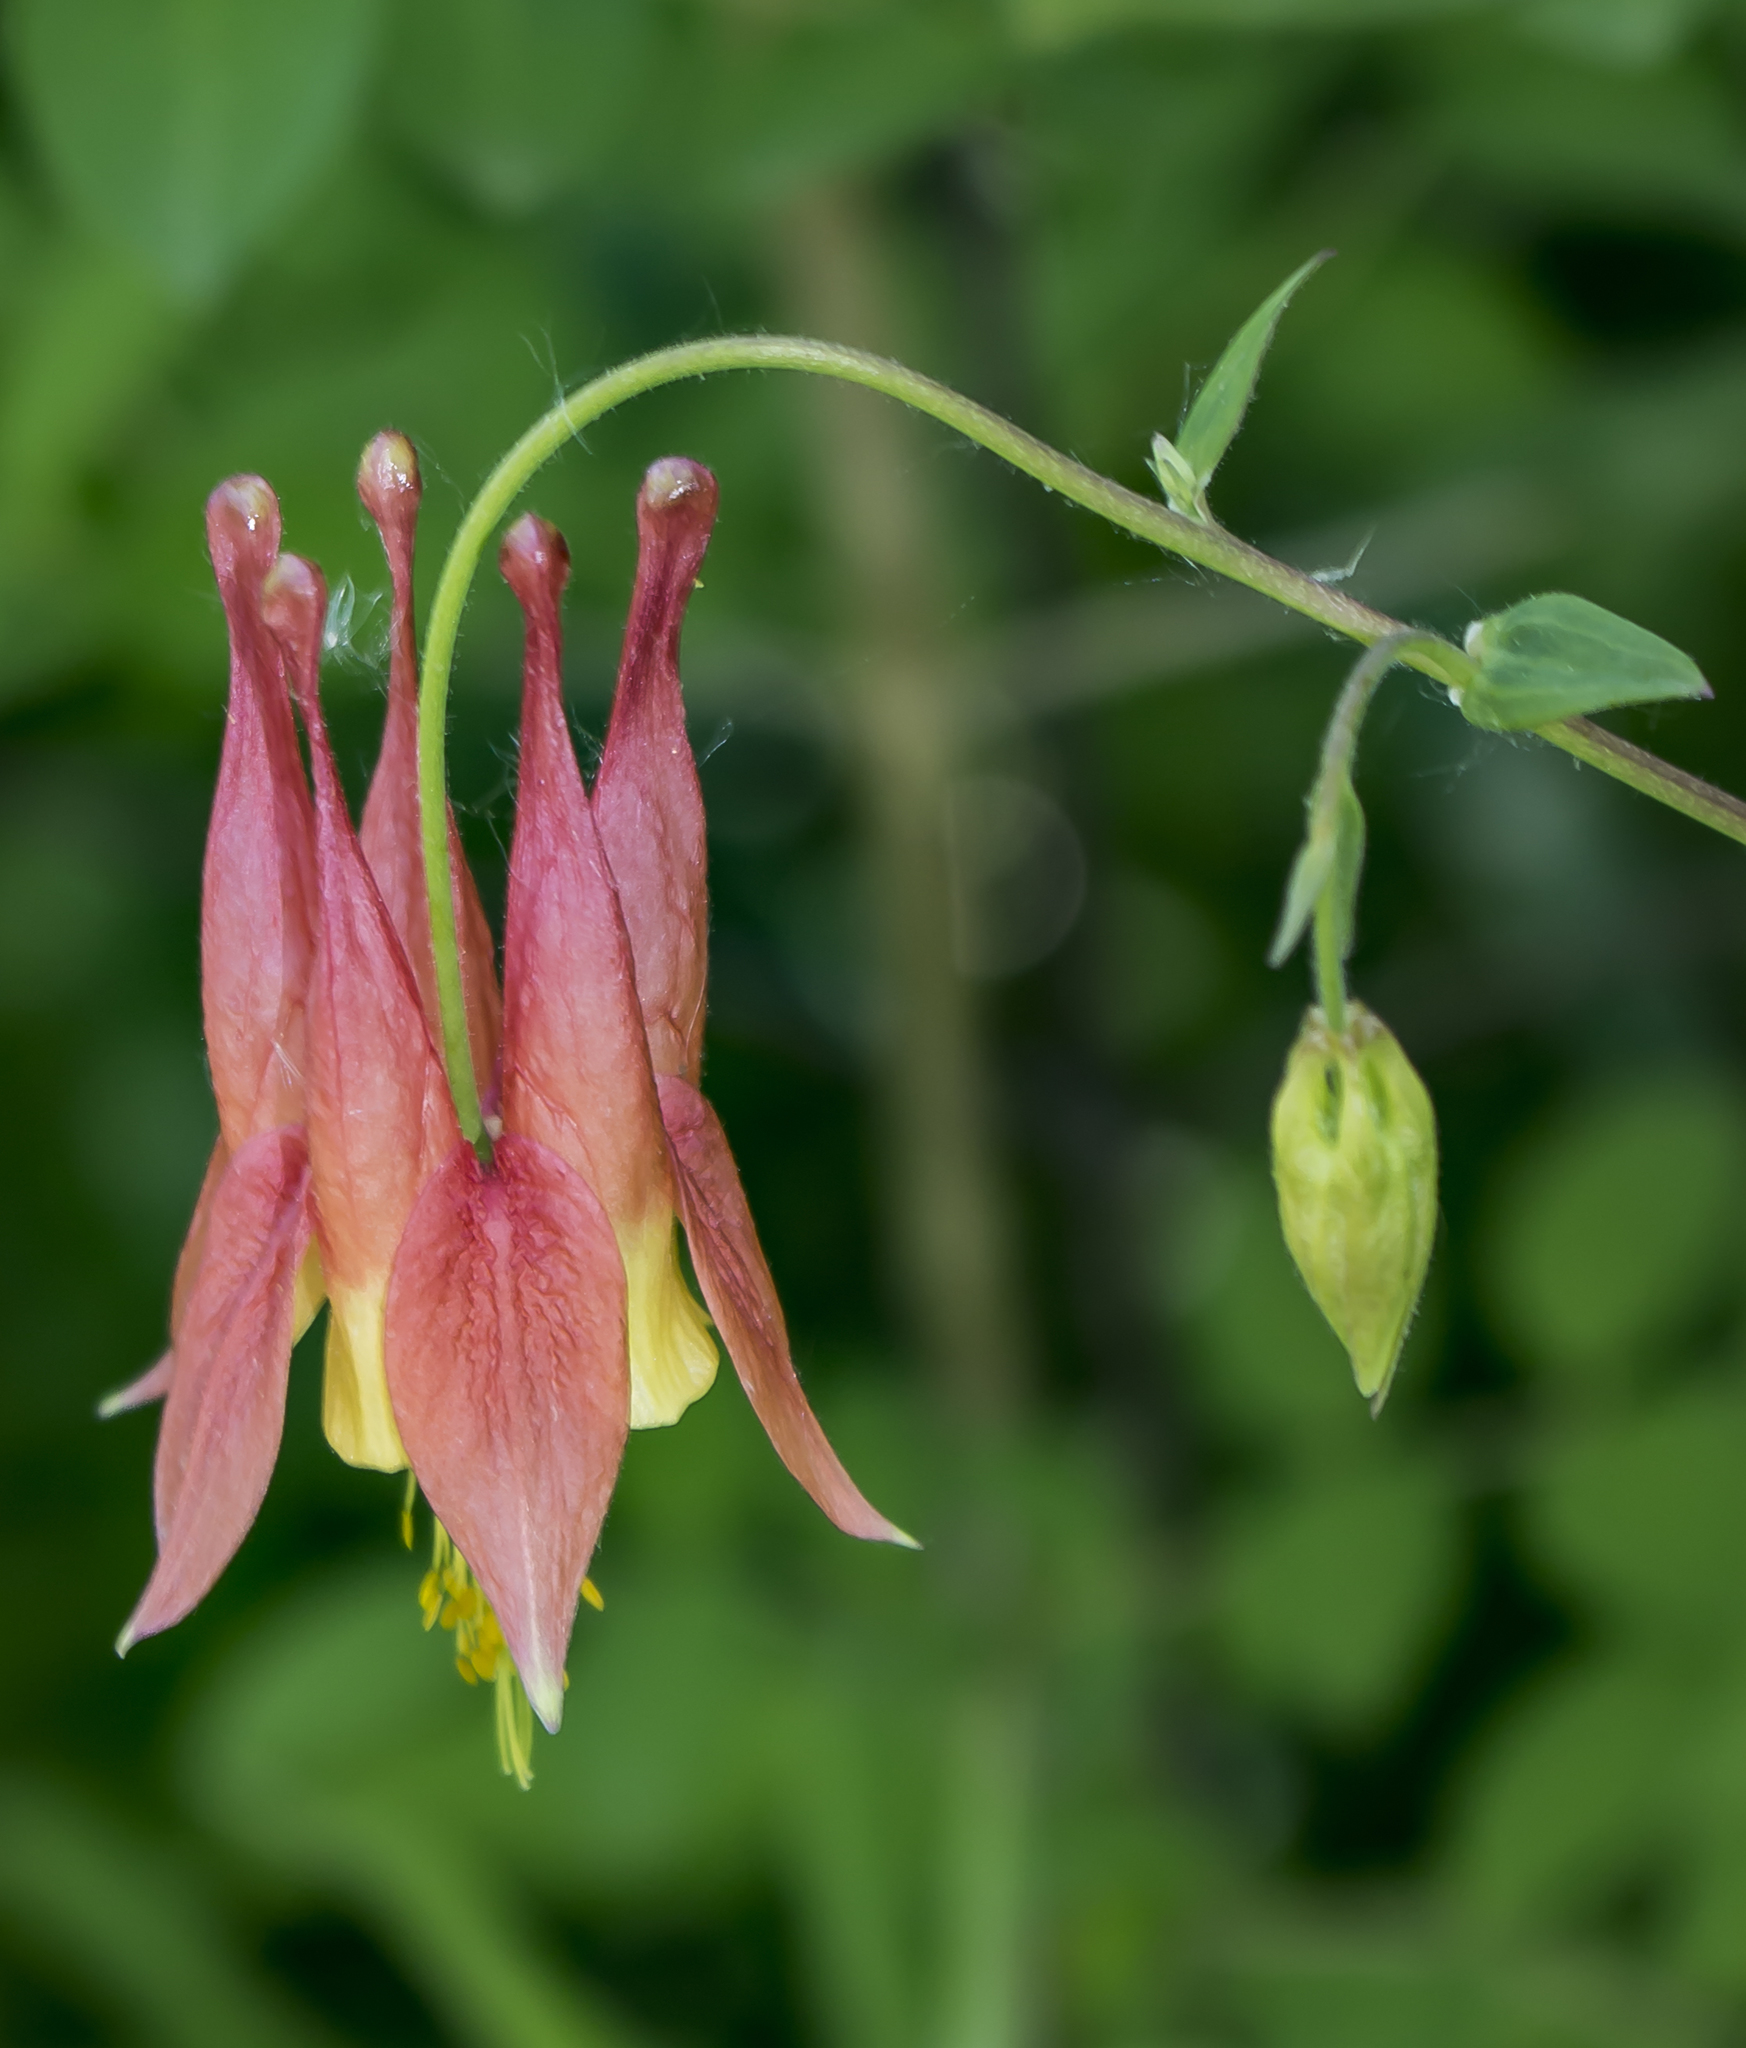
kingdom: Plantae
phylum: Tracheophyta
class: Magnoliopsida
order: Ranunculales
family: Ranunculaceae
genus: Aquilegia
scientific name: Aquilegia canadensis
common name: American columbine
